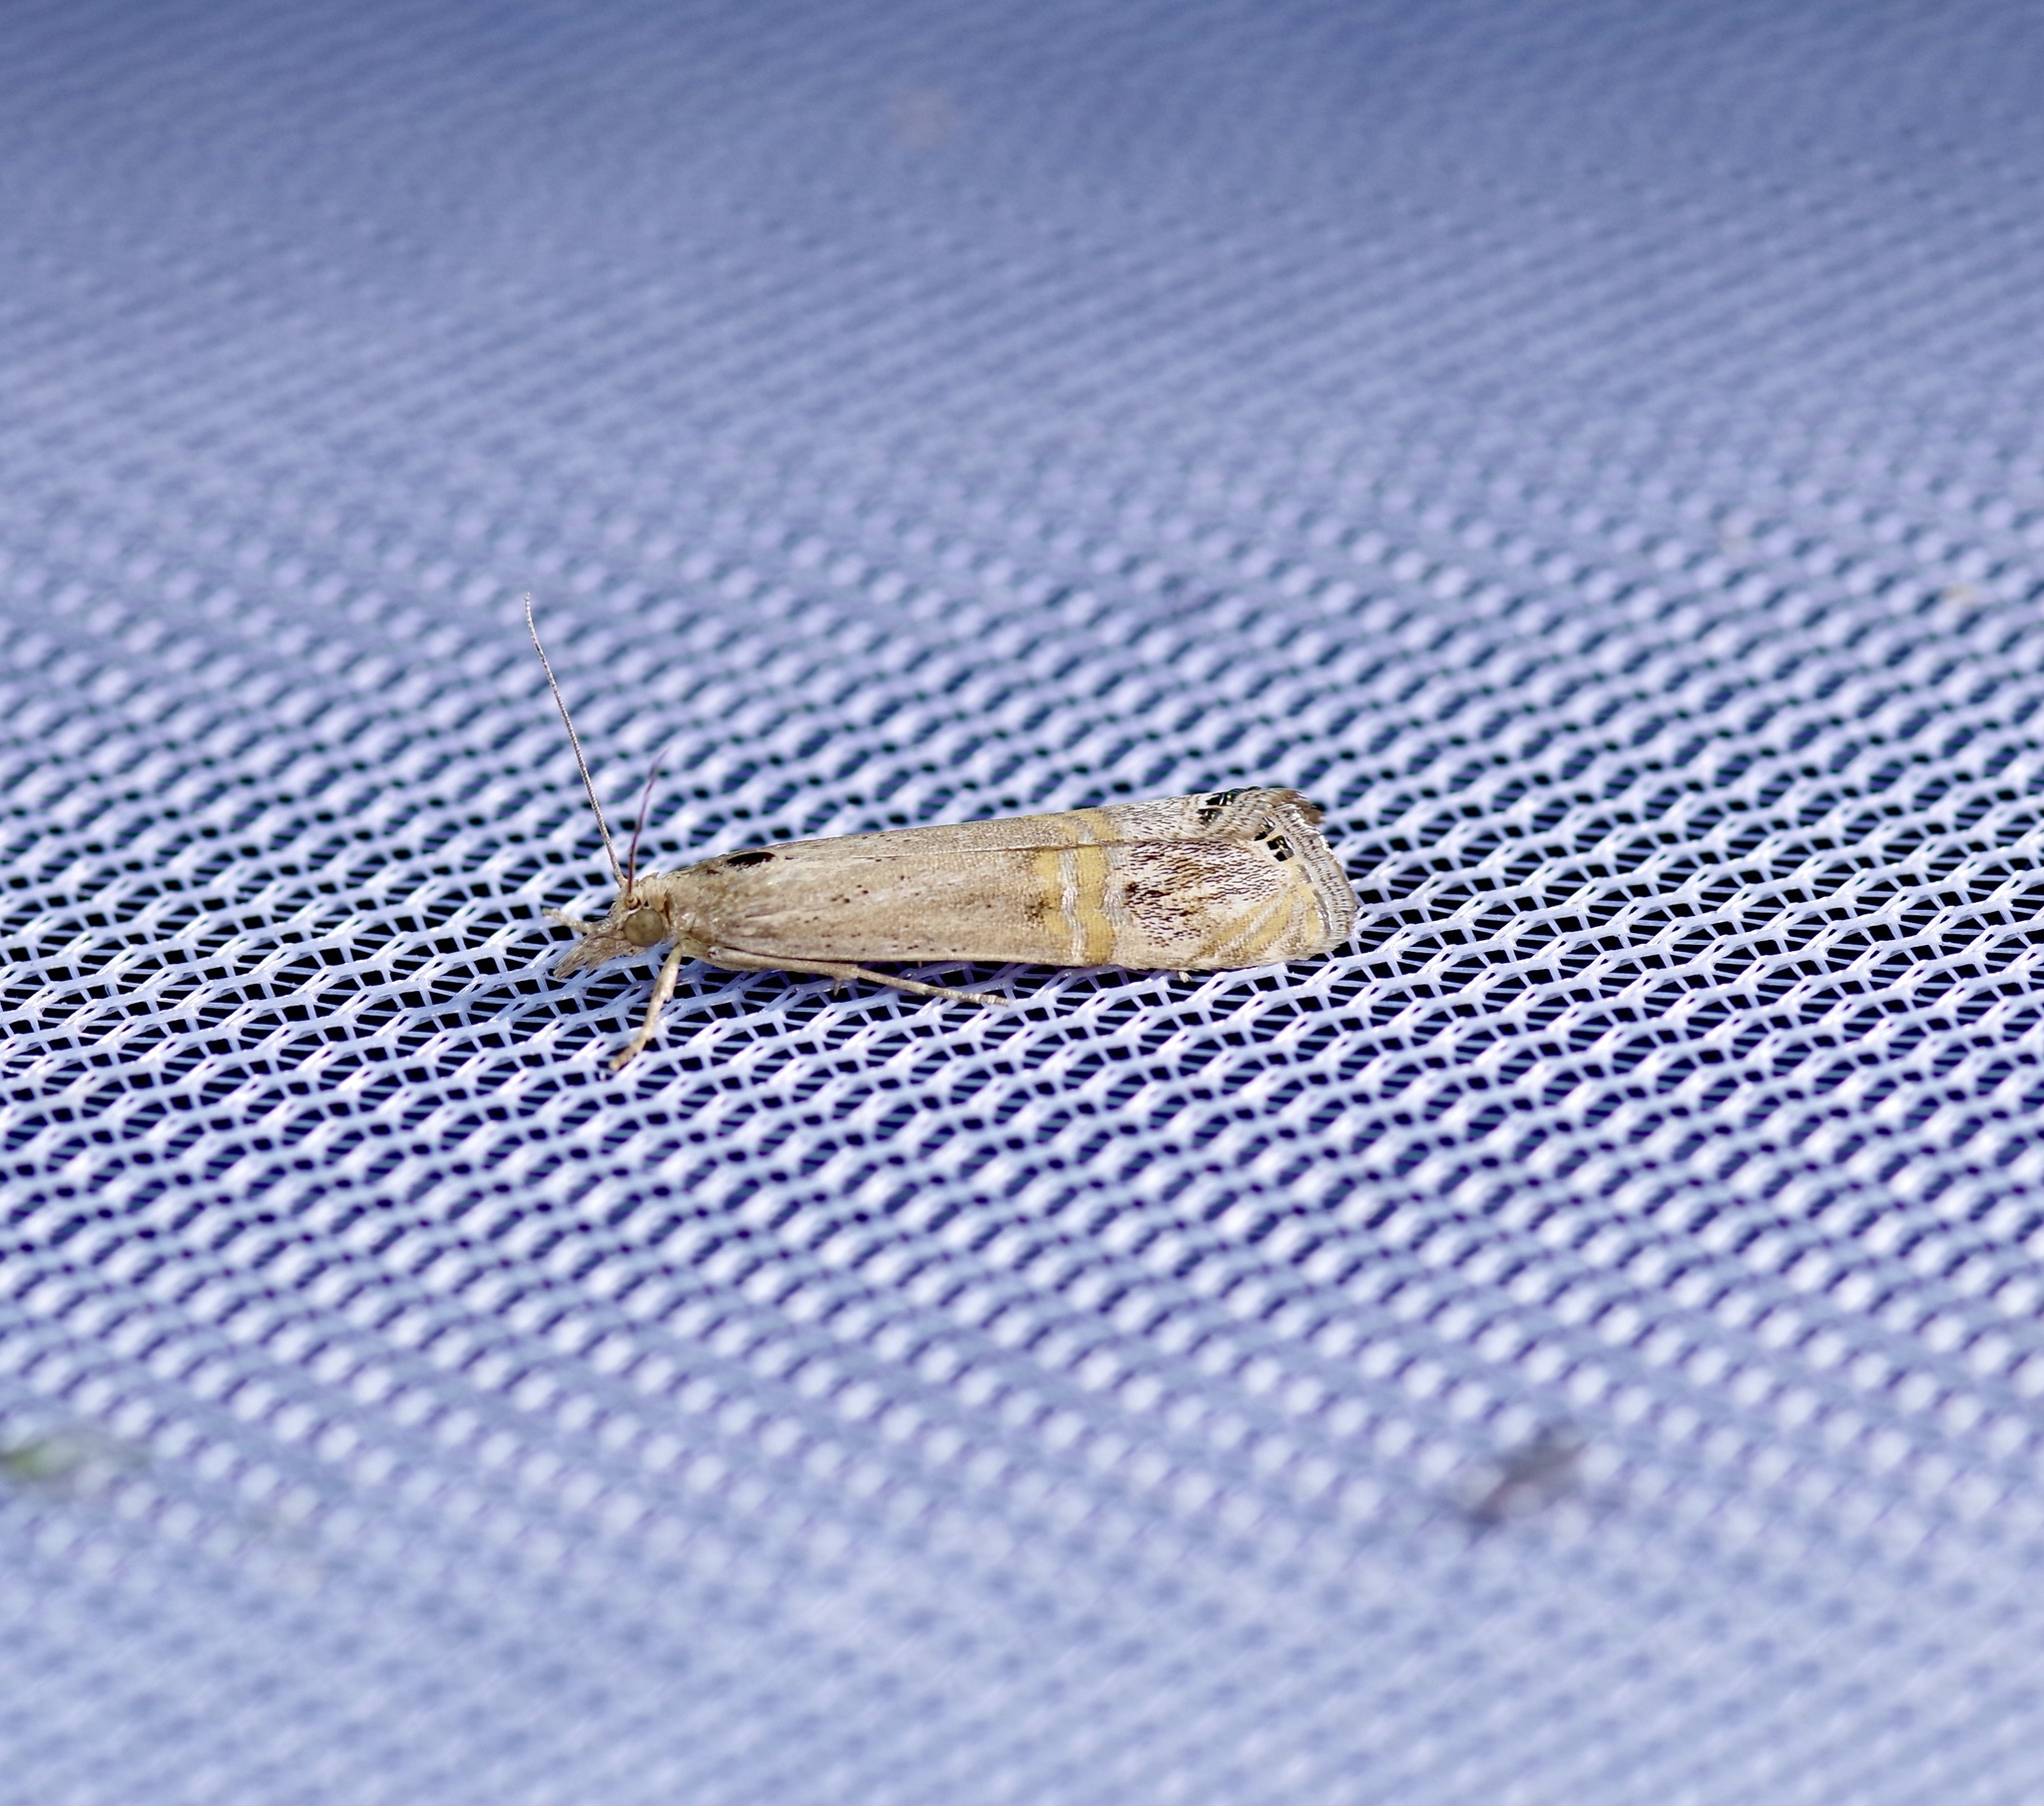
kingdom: Animalia
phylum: Arthropoda
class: Insecta
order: Lepidoptera
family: Crambidae
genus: Euchromius
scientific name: Euchromius ocellea
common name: Necklace veneer moth
